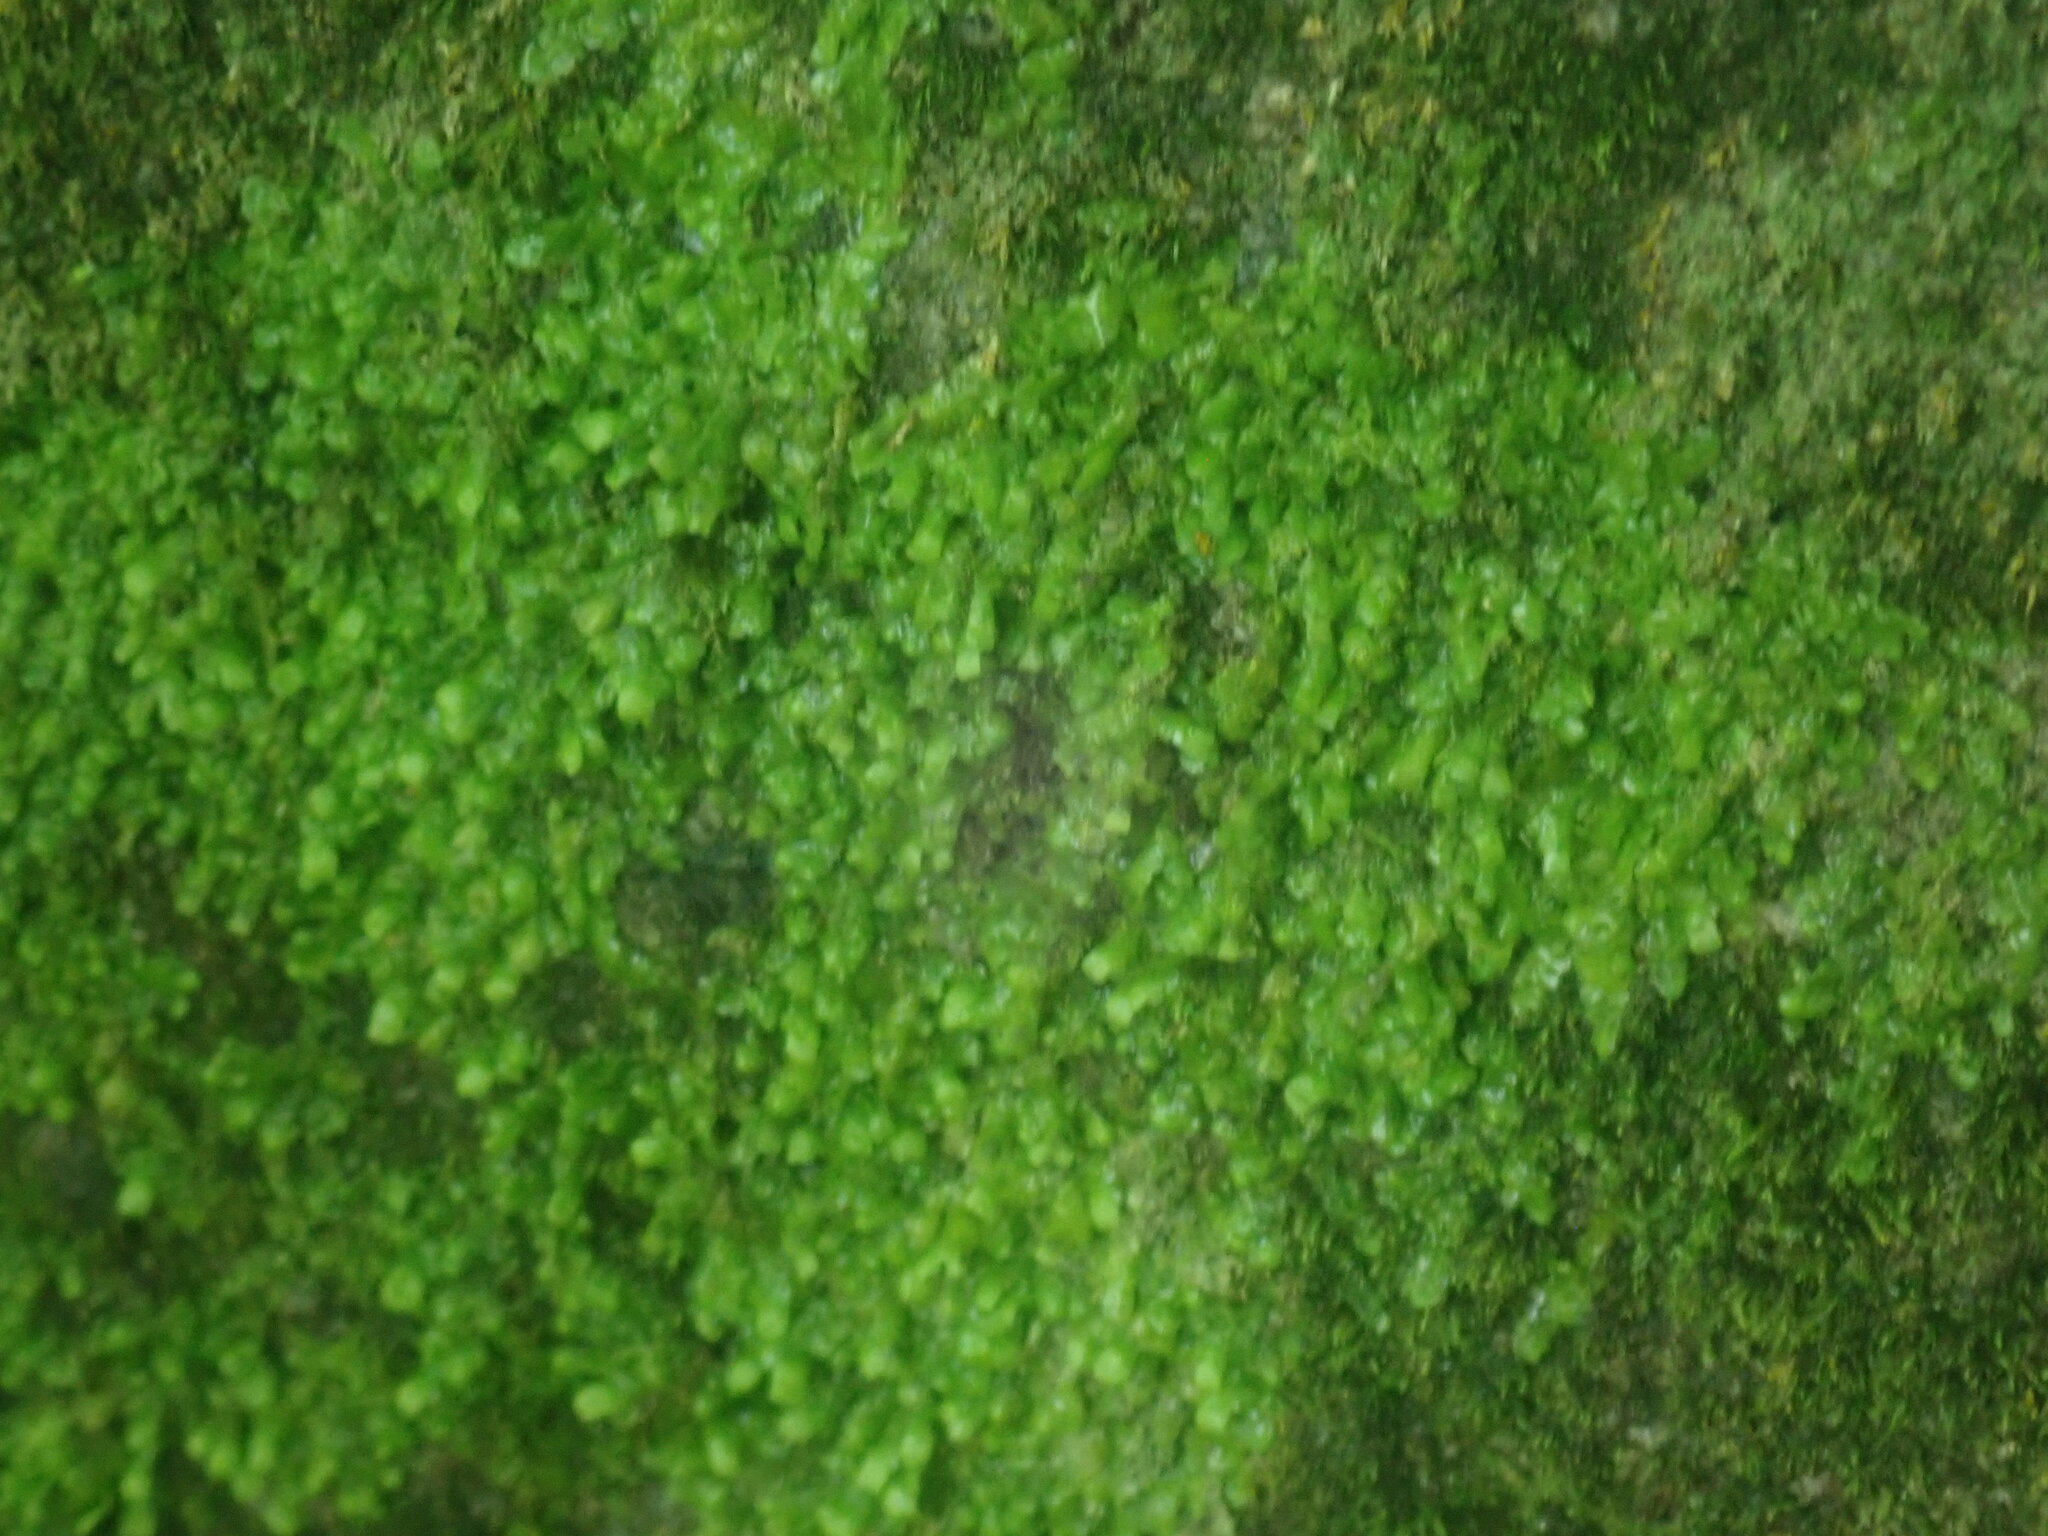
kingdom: Plantae
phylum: Marchantiophyta
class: Jungermanniopsida
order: Porellales
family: Radulaceae
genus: Radula
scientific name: Radula complanata
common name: Flat-leaved scalewort
